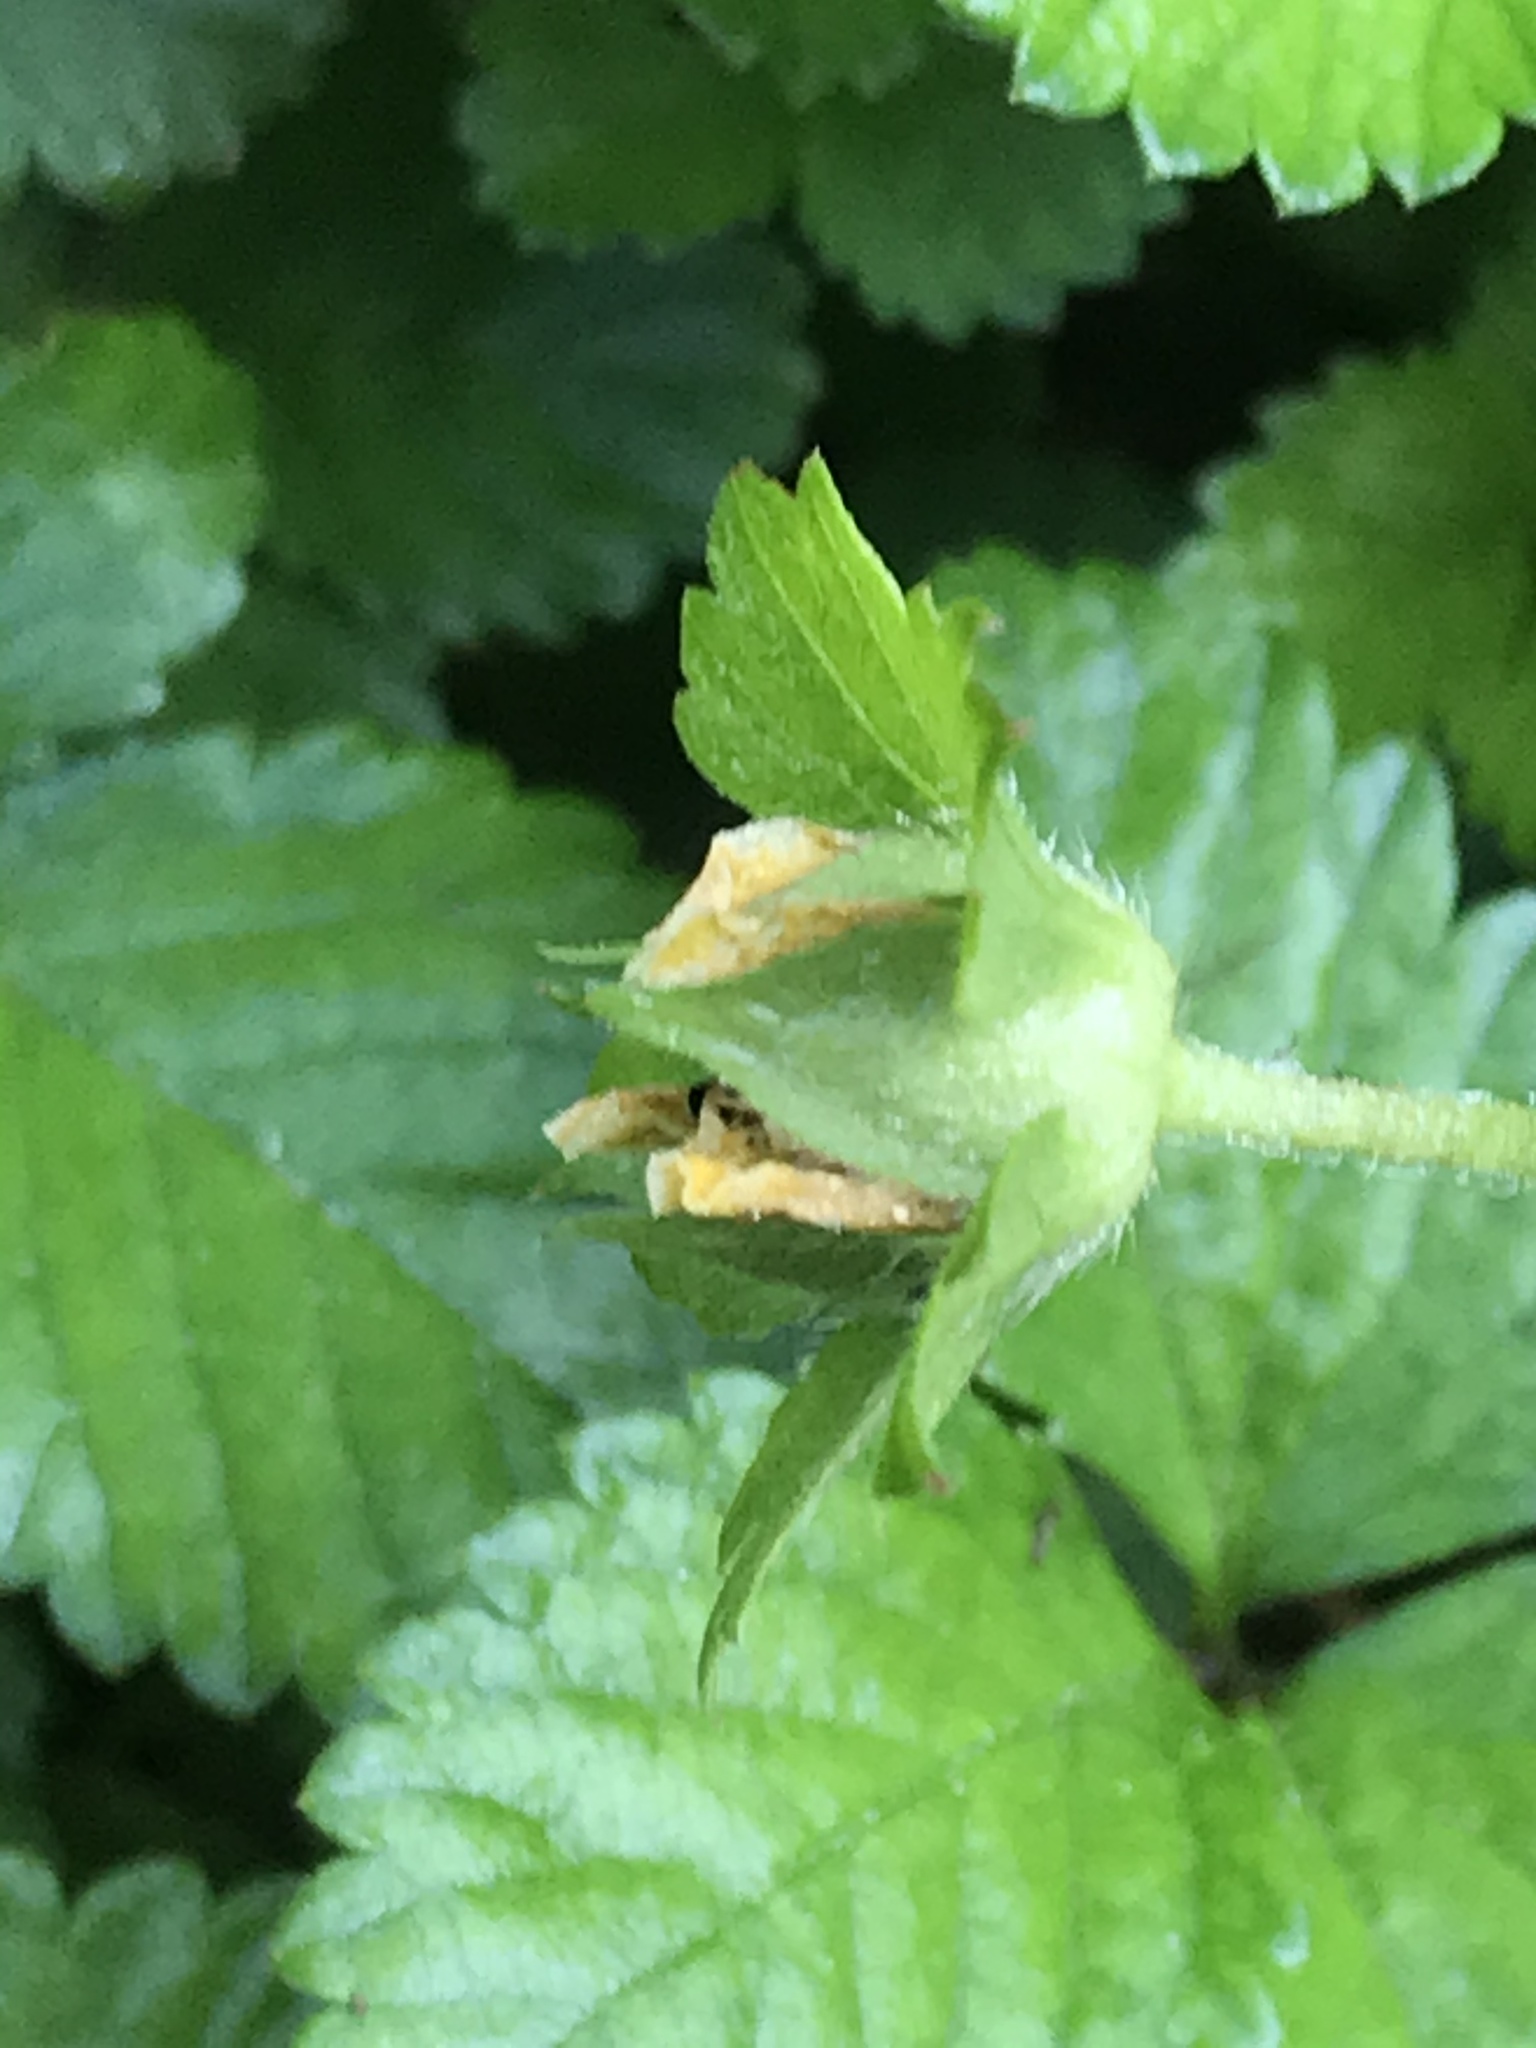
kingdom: Plantae
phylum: Tracheophyta
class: Magnoliopsida
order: Rosales
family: Rosaceae
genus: Potentilla
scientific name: Potentilla indica
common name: Yellow-flowered strawberry
